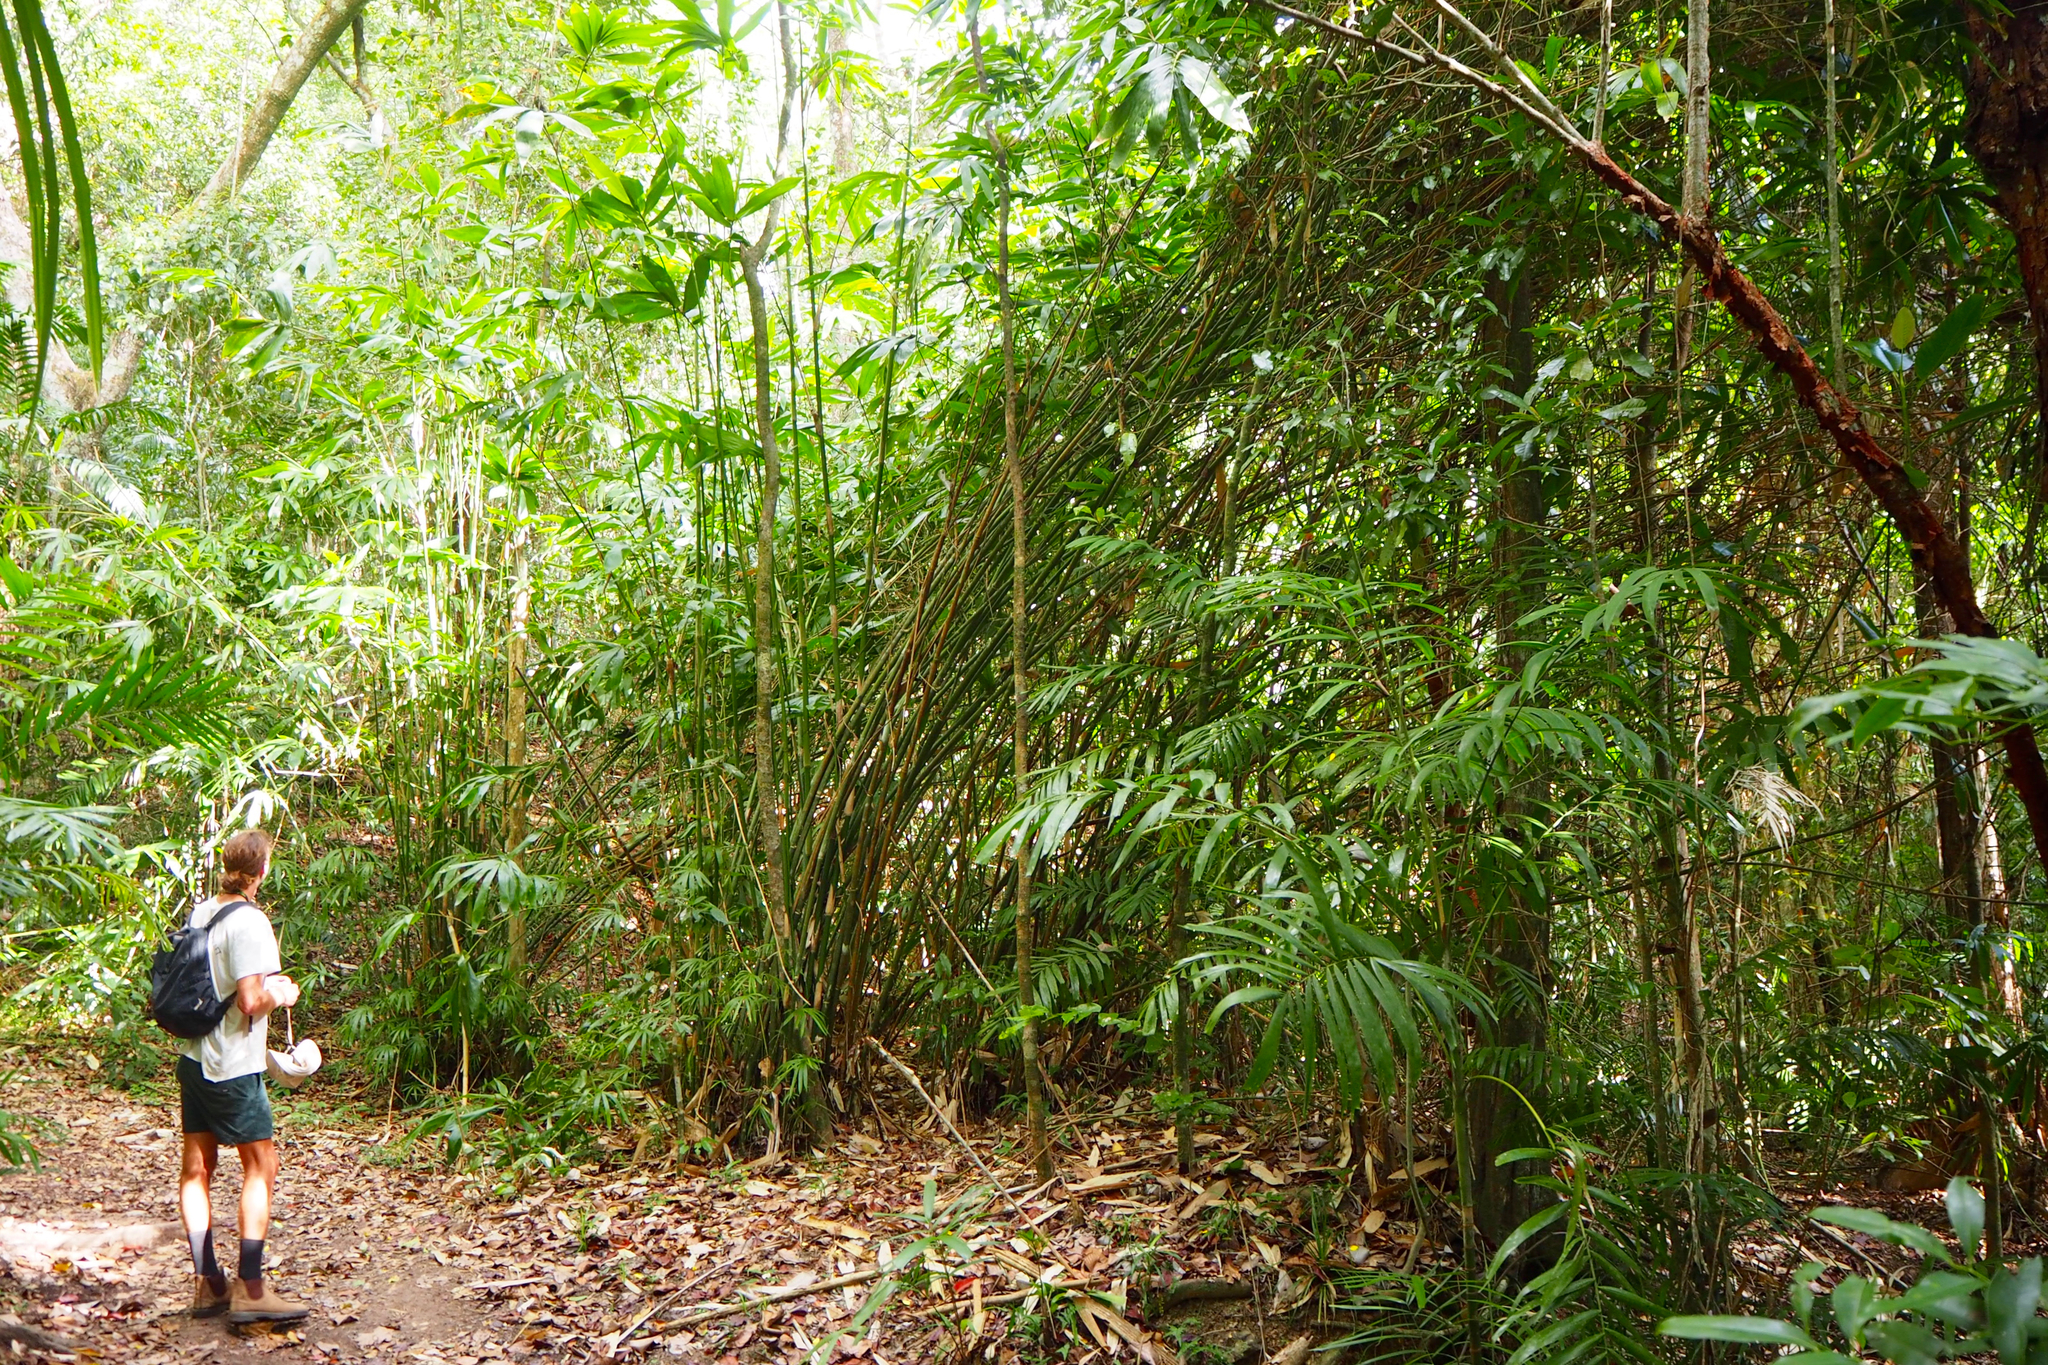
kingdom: Plantae
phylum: Tracheophyta
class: Liliopsida
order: Poales
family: Poaceae
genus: Neololeba
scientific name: Neololeba atra
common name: Cape bamboo
